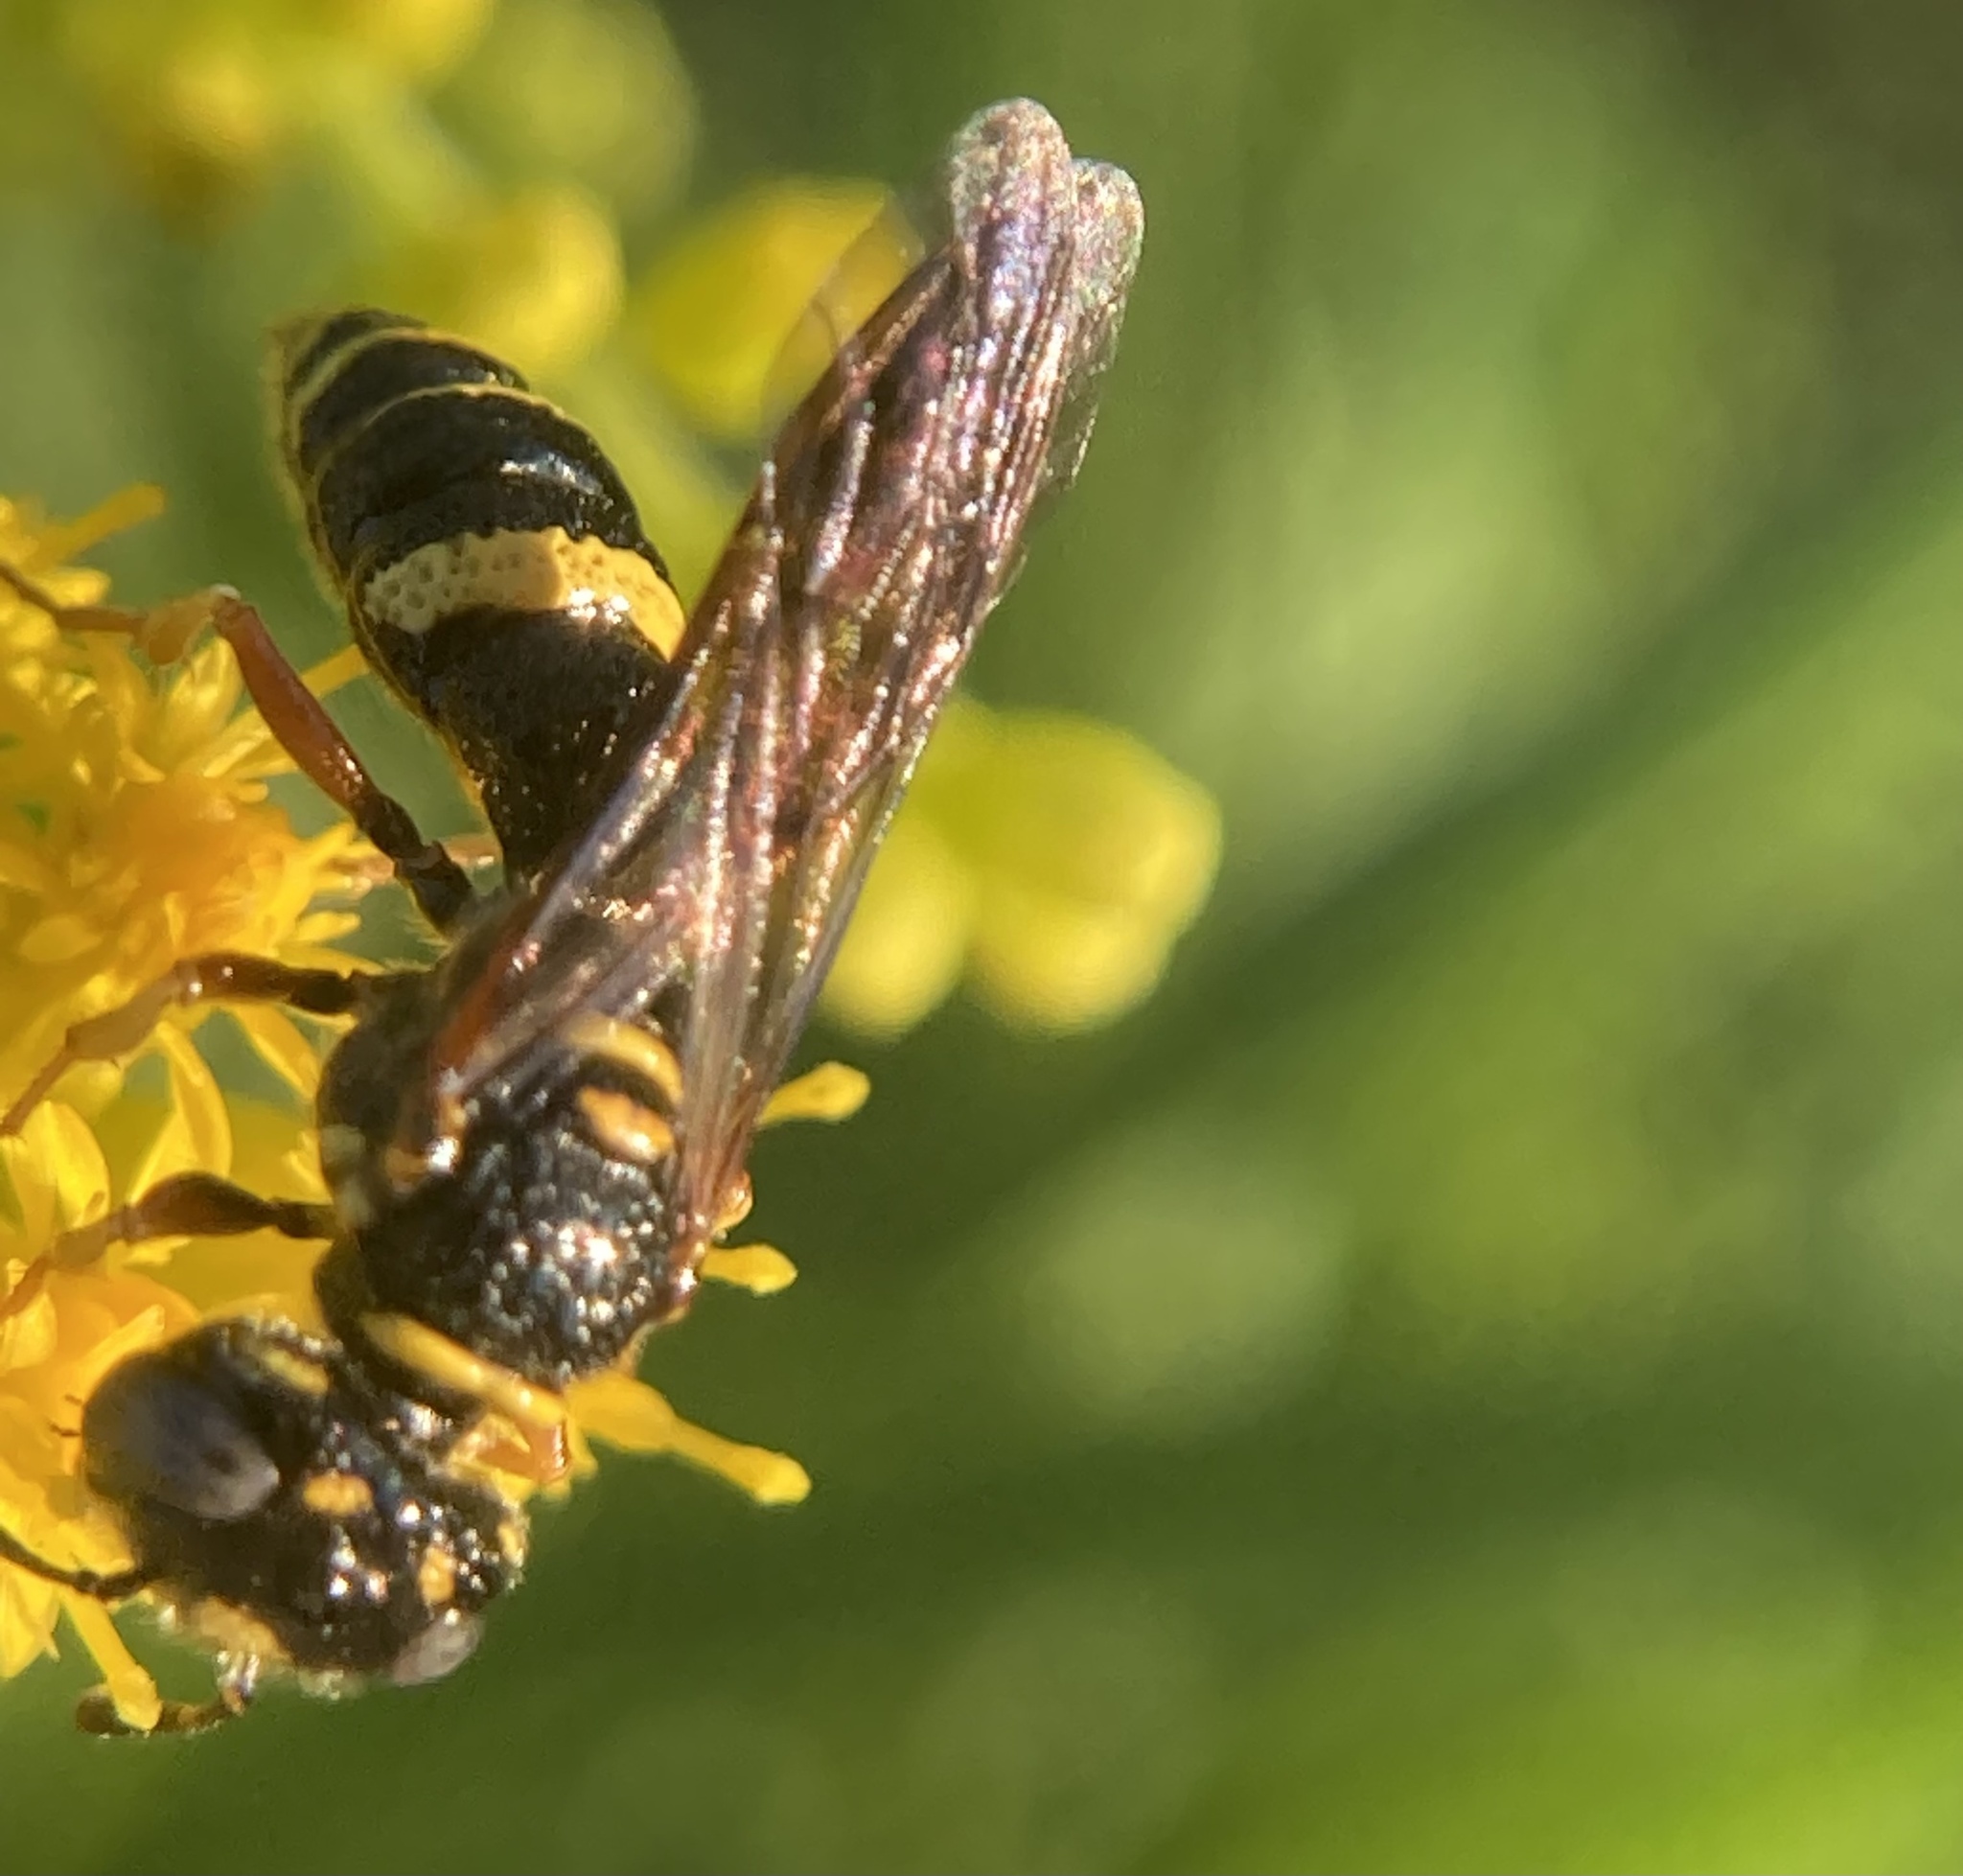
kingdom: Animalia
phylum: Arthropoda
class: Insecta
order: Hymenoptera
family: Crabronidae
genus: Philanthus
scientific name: Philanthus gibbosus
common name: Humped beewolf
